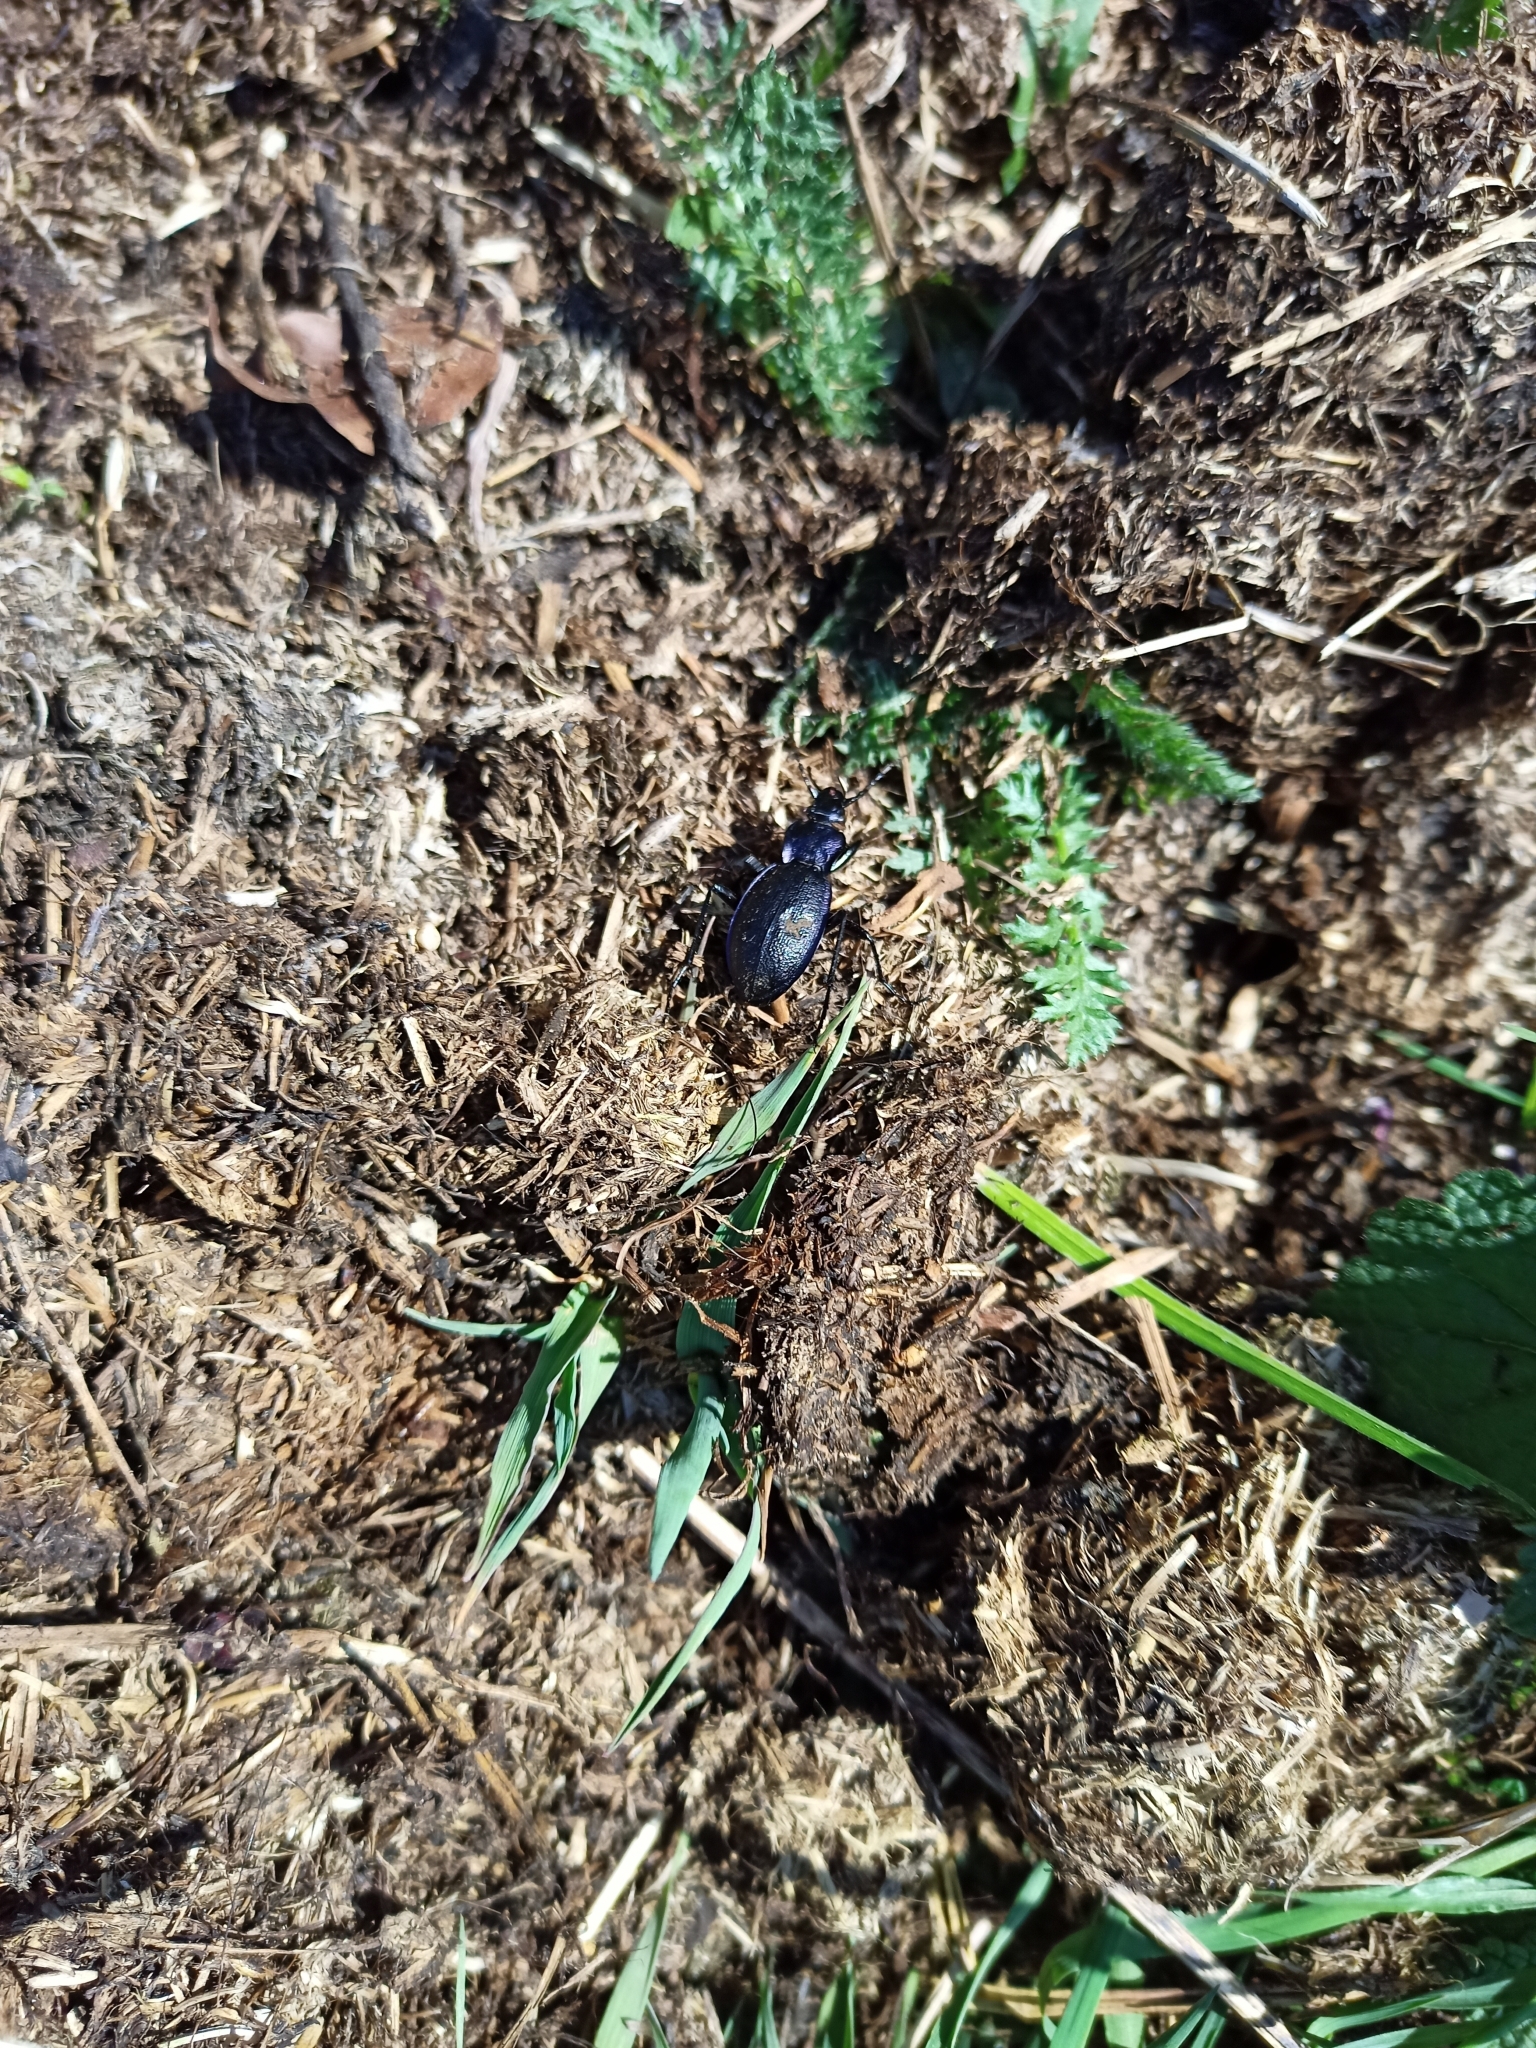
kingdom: Animalia
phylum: Arthropoda
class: Insecta
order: Coleoptera
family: Carabidae
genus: Carabus
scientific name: Carabus problematicus
